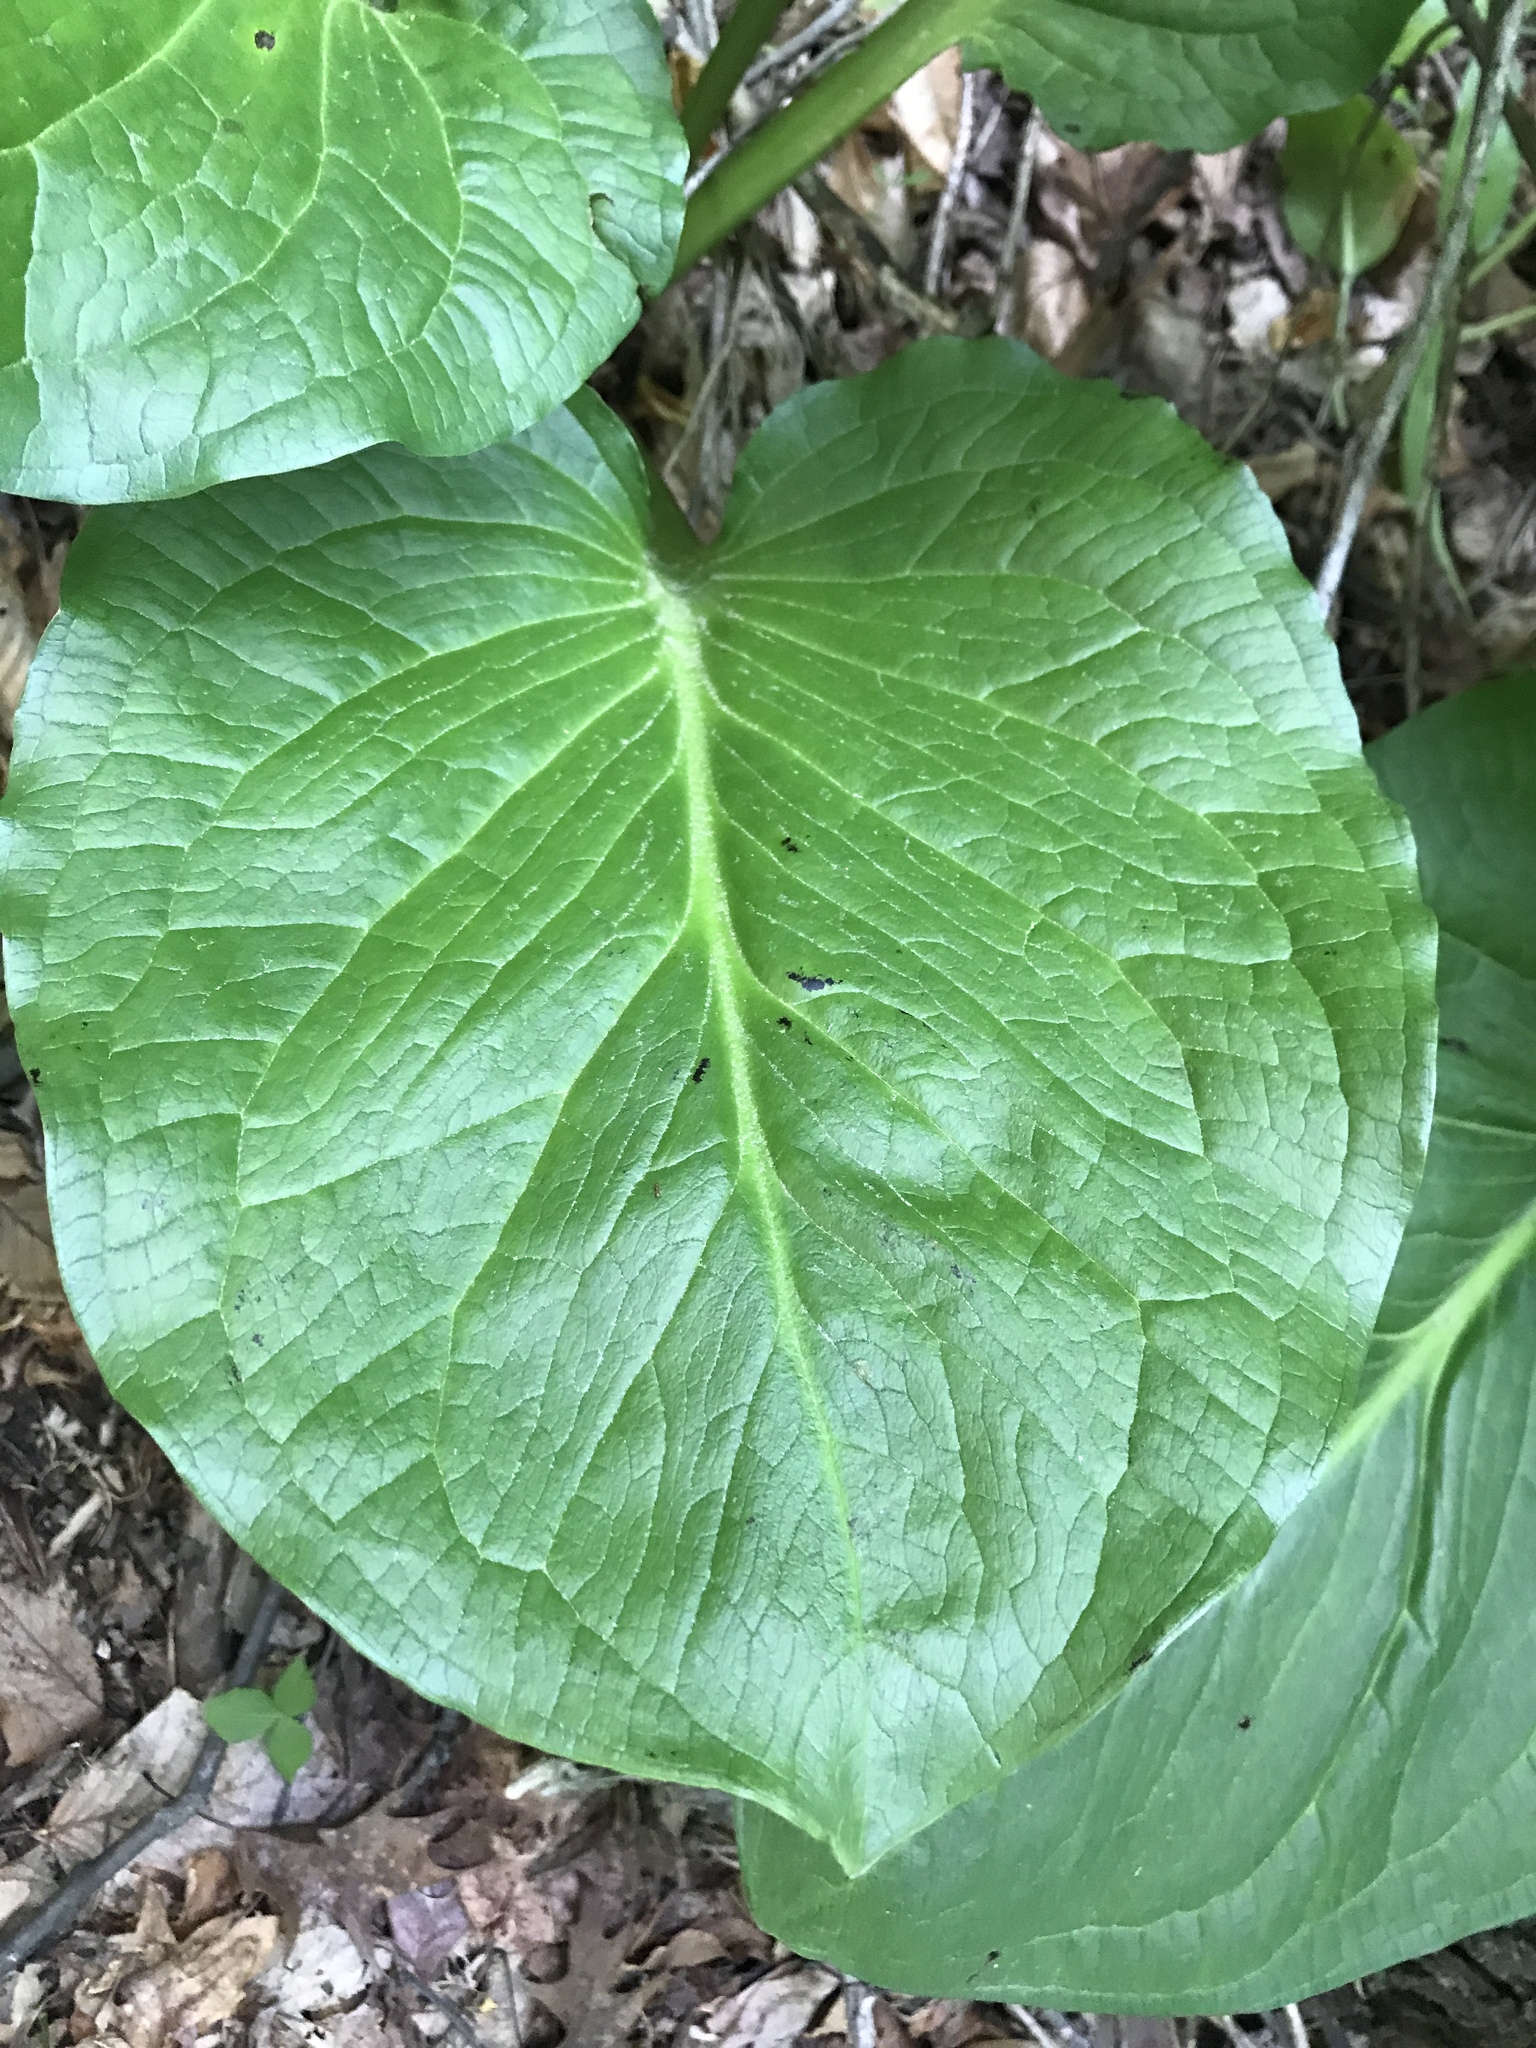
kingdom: Plantae
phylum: Tracheophyta
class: Liliopsida
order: Alismatales
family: Araceae
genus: Symplocarpus
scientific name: Symplocarpus foetidus
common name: Eastern skunk cabbage
